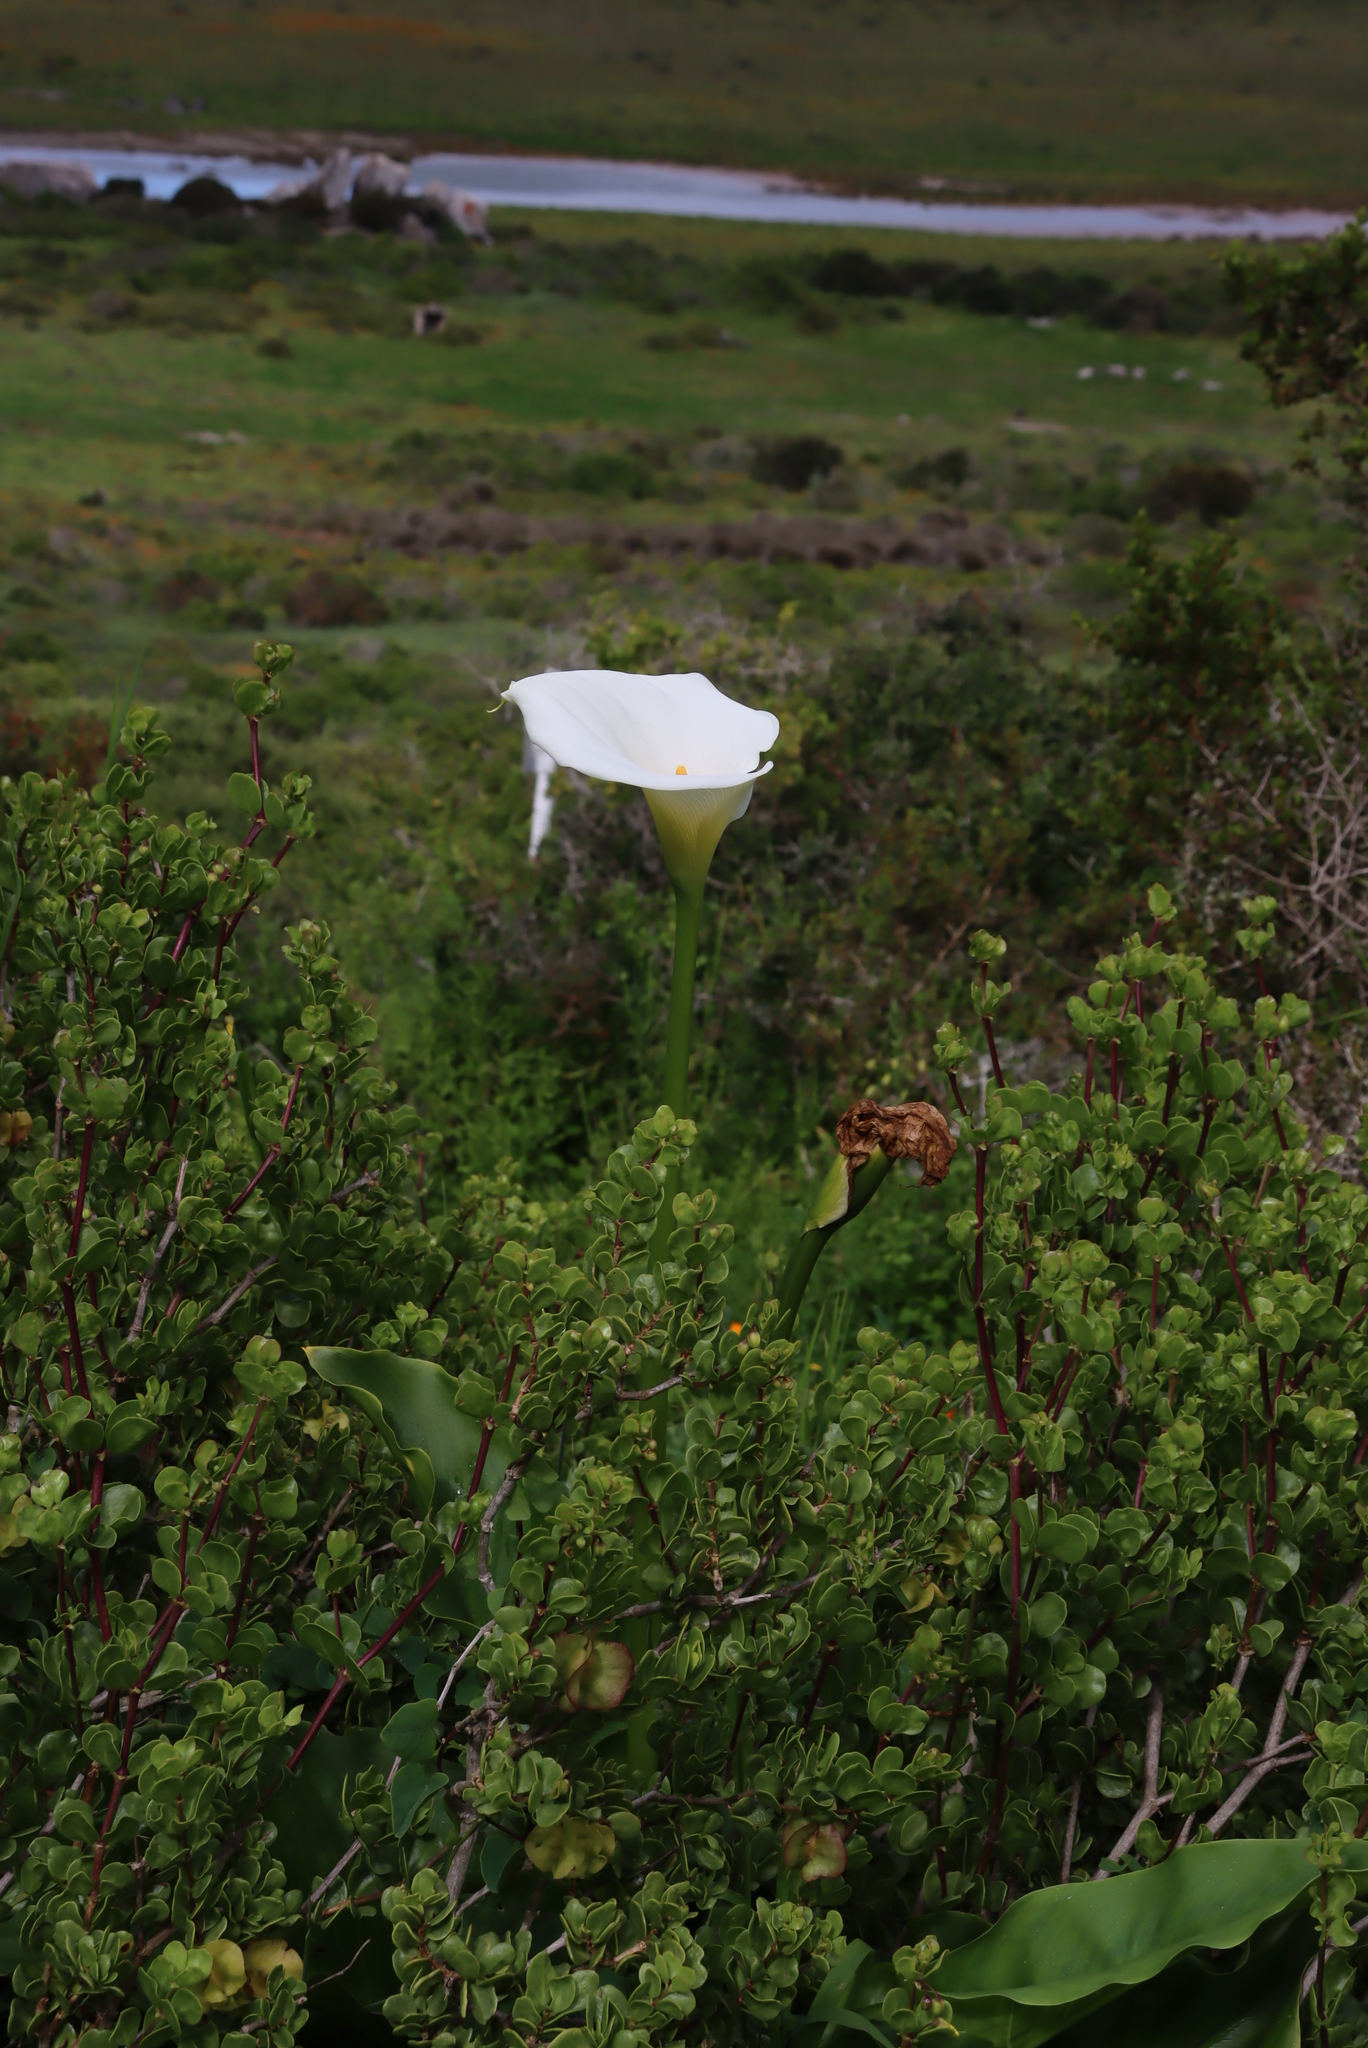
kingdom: Plantae
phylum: Tracheophyta
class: Liliopsida
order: Alismatales
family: Araceae
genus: Zantedeschia
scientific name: Zantedeschia aethiopica
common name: Altar-lily
